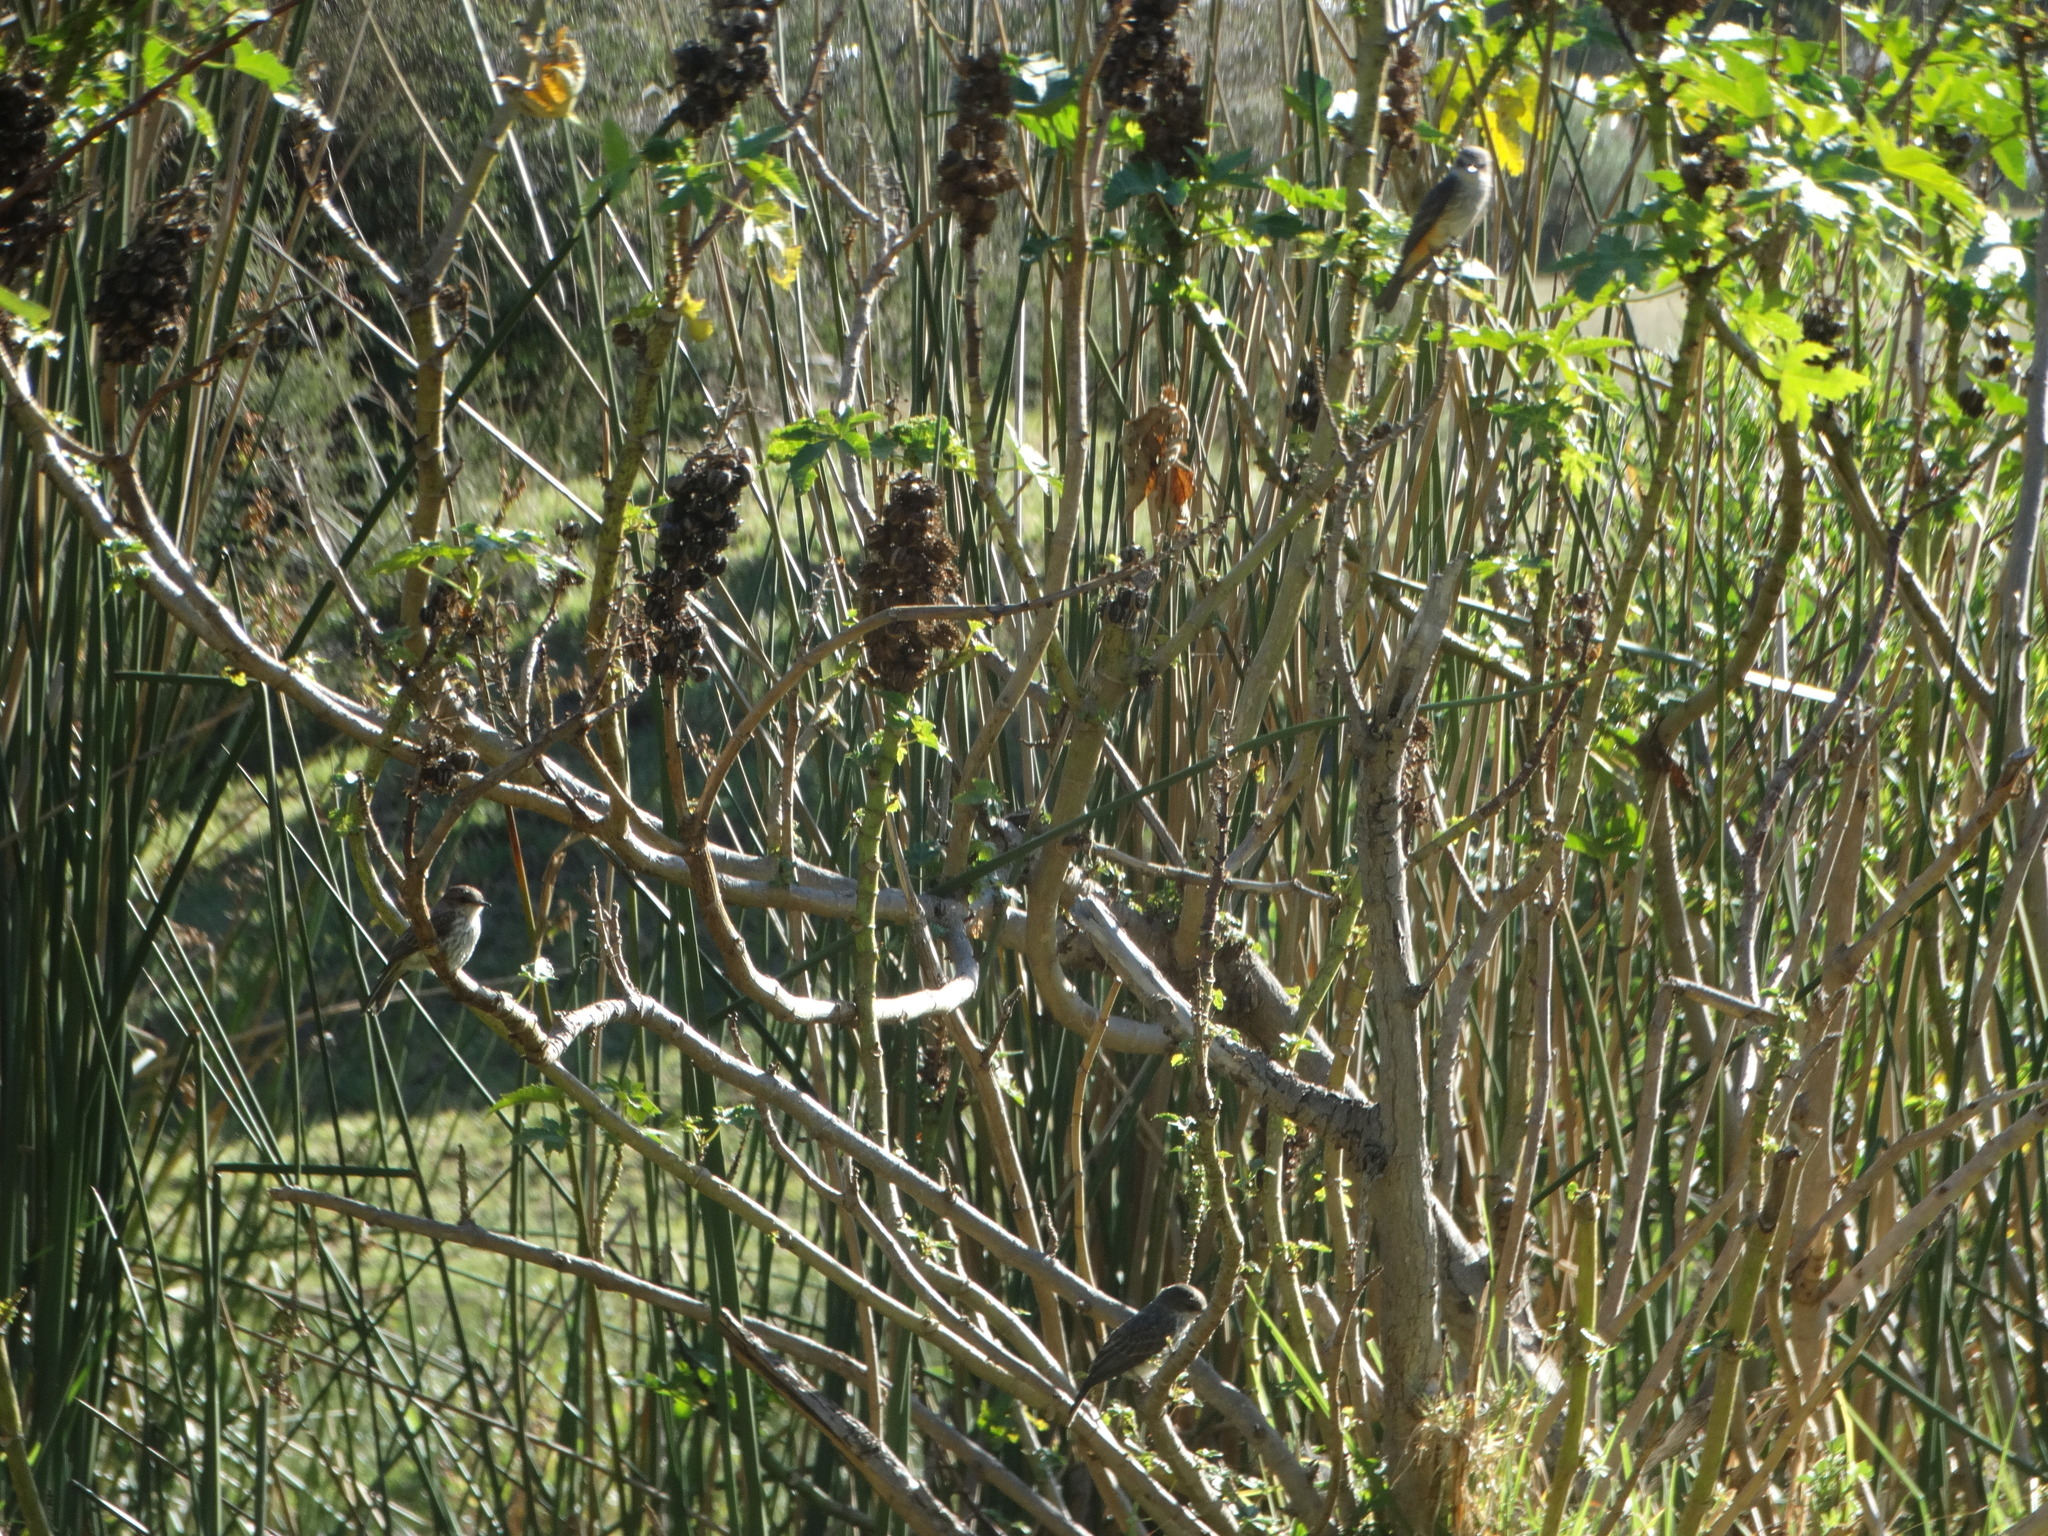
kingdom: Animalia
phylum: Chordata
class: Aves
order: Passeriformes
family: Tyrannidae
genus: Pyrocephalus
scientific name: Pyrocephalus rubinus
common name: Vermilion flycatcher
